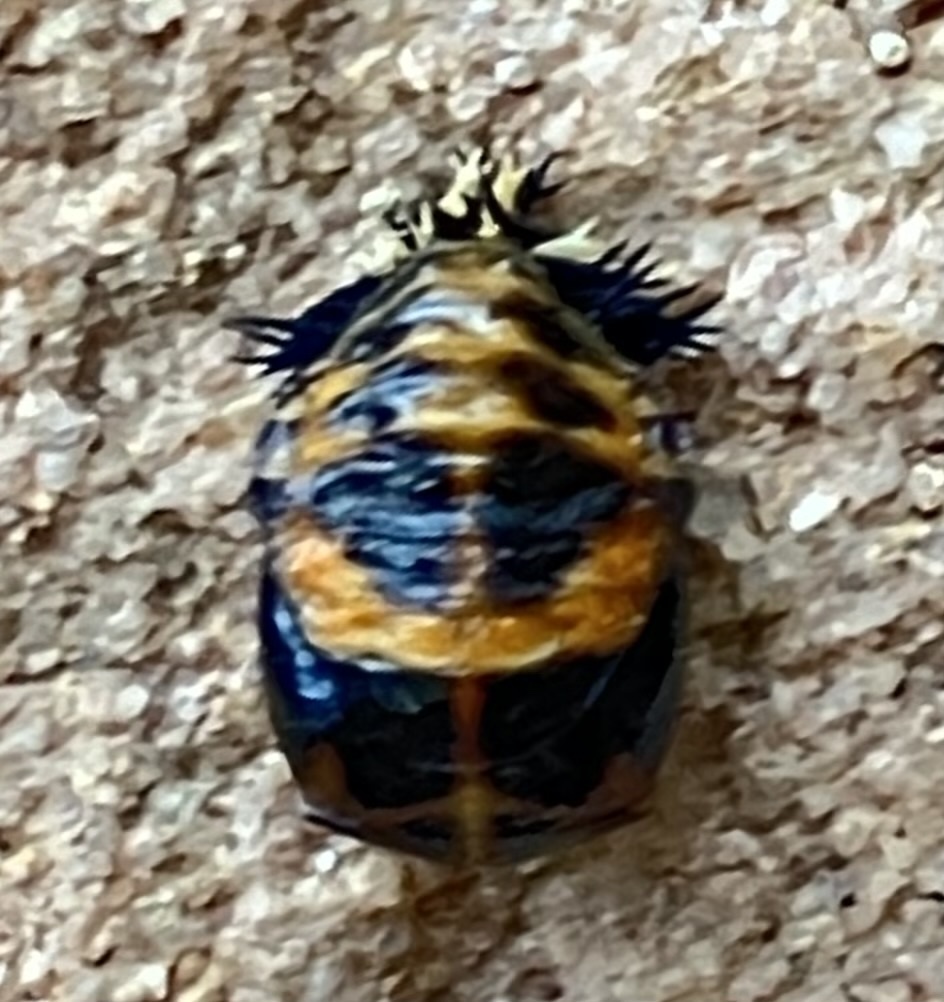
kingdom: Animalia
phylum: Arthropoda
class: Insecta
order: Coleoptera
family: Coccinellidae
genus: Harmonia
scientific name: Harmonia axyridis
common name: Harlequin ladybird
